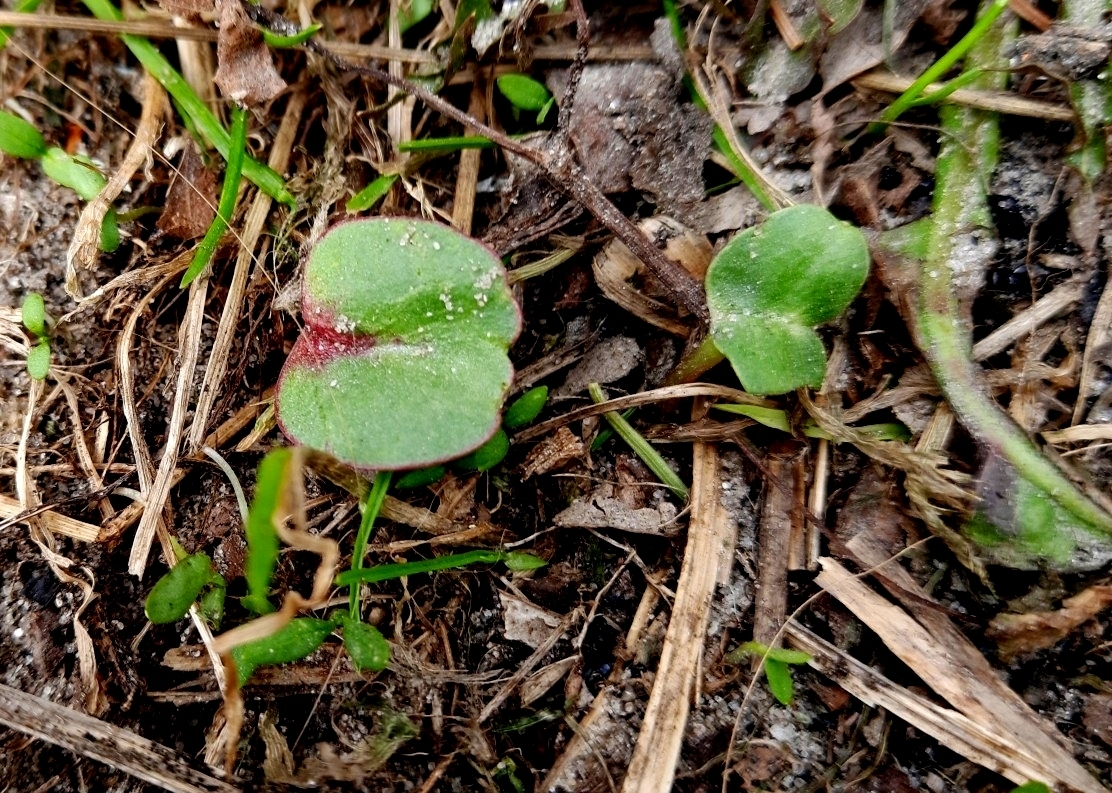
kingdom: Plantae
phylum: Tracheophyta
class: Magnoliopsida
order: Ericales
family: Balsaminaceae
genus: Impatiens
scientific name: Impatiens glandulifera
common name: Himalayan balsam
